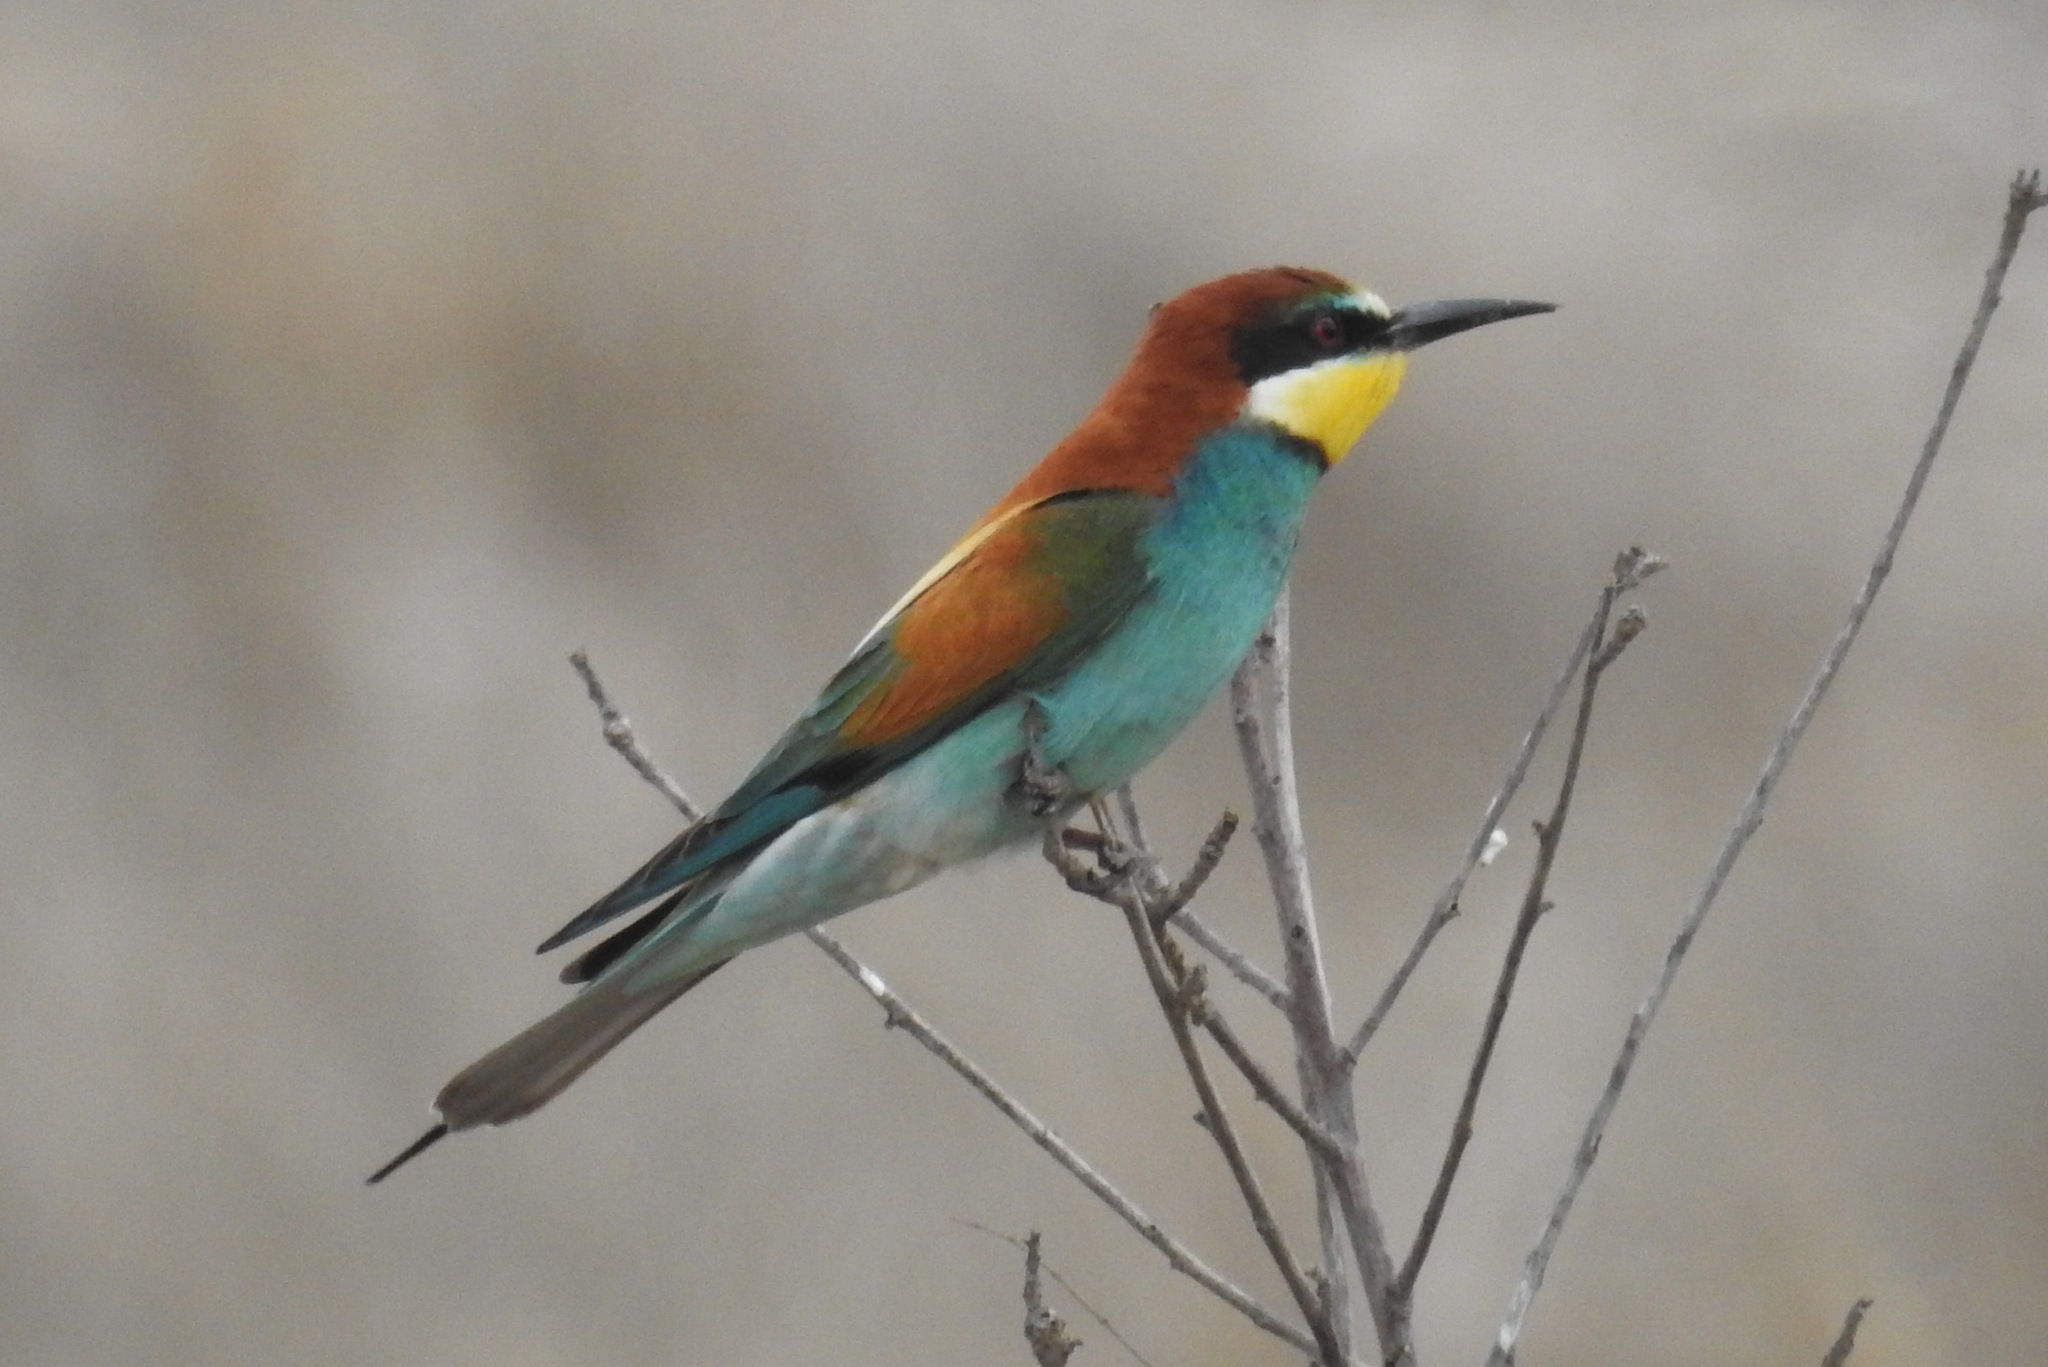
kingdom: Animalia
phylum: Chordata
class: Aves
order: Coraciiformes
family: Meropidae
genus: Merops
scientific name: Merops apiaster
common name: European bee-eater
